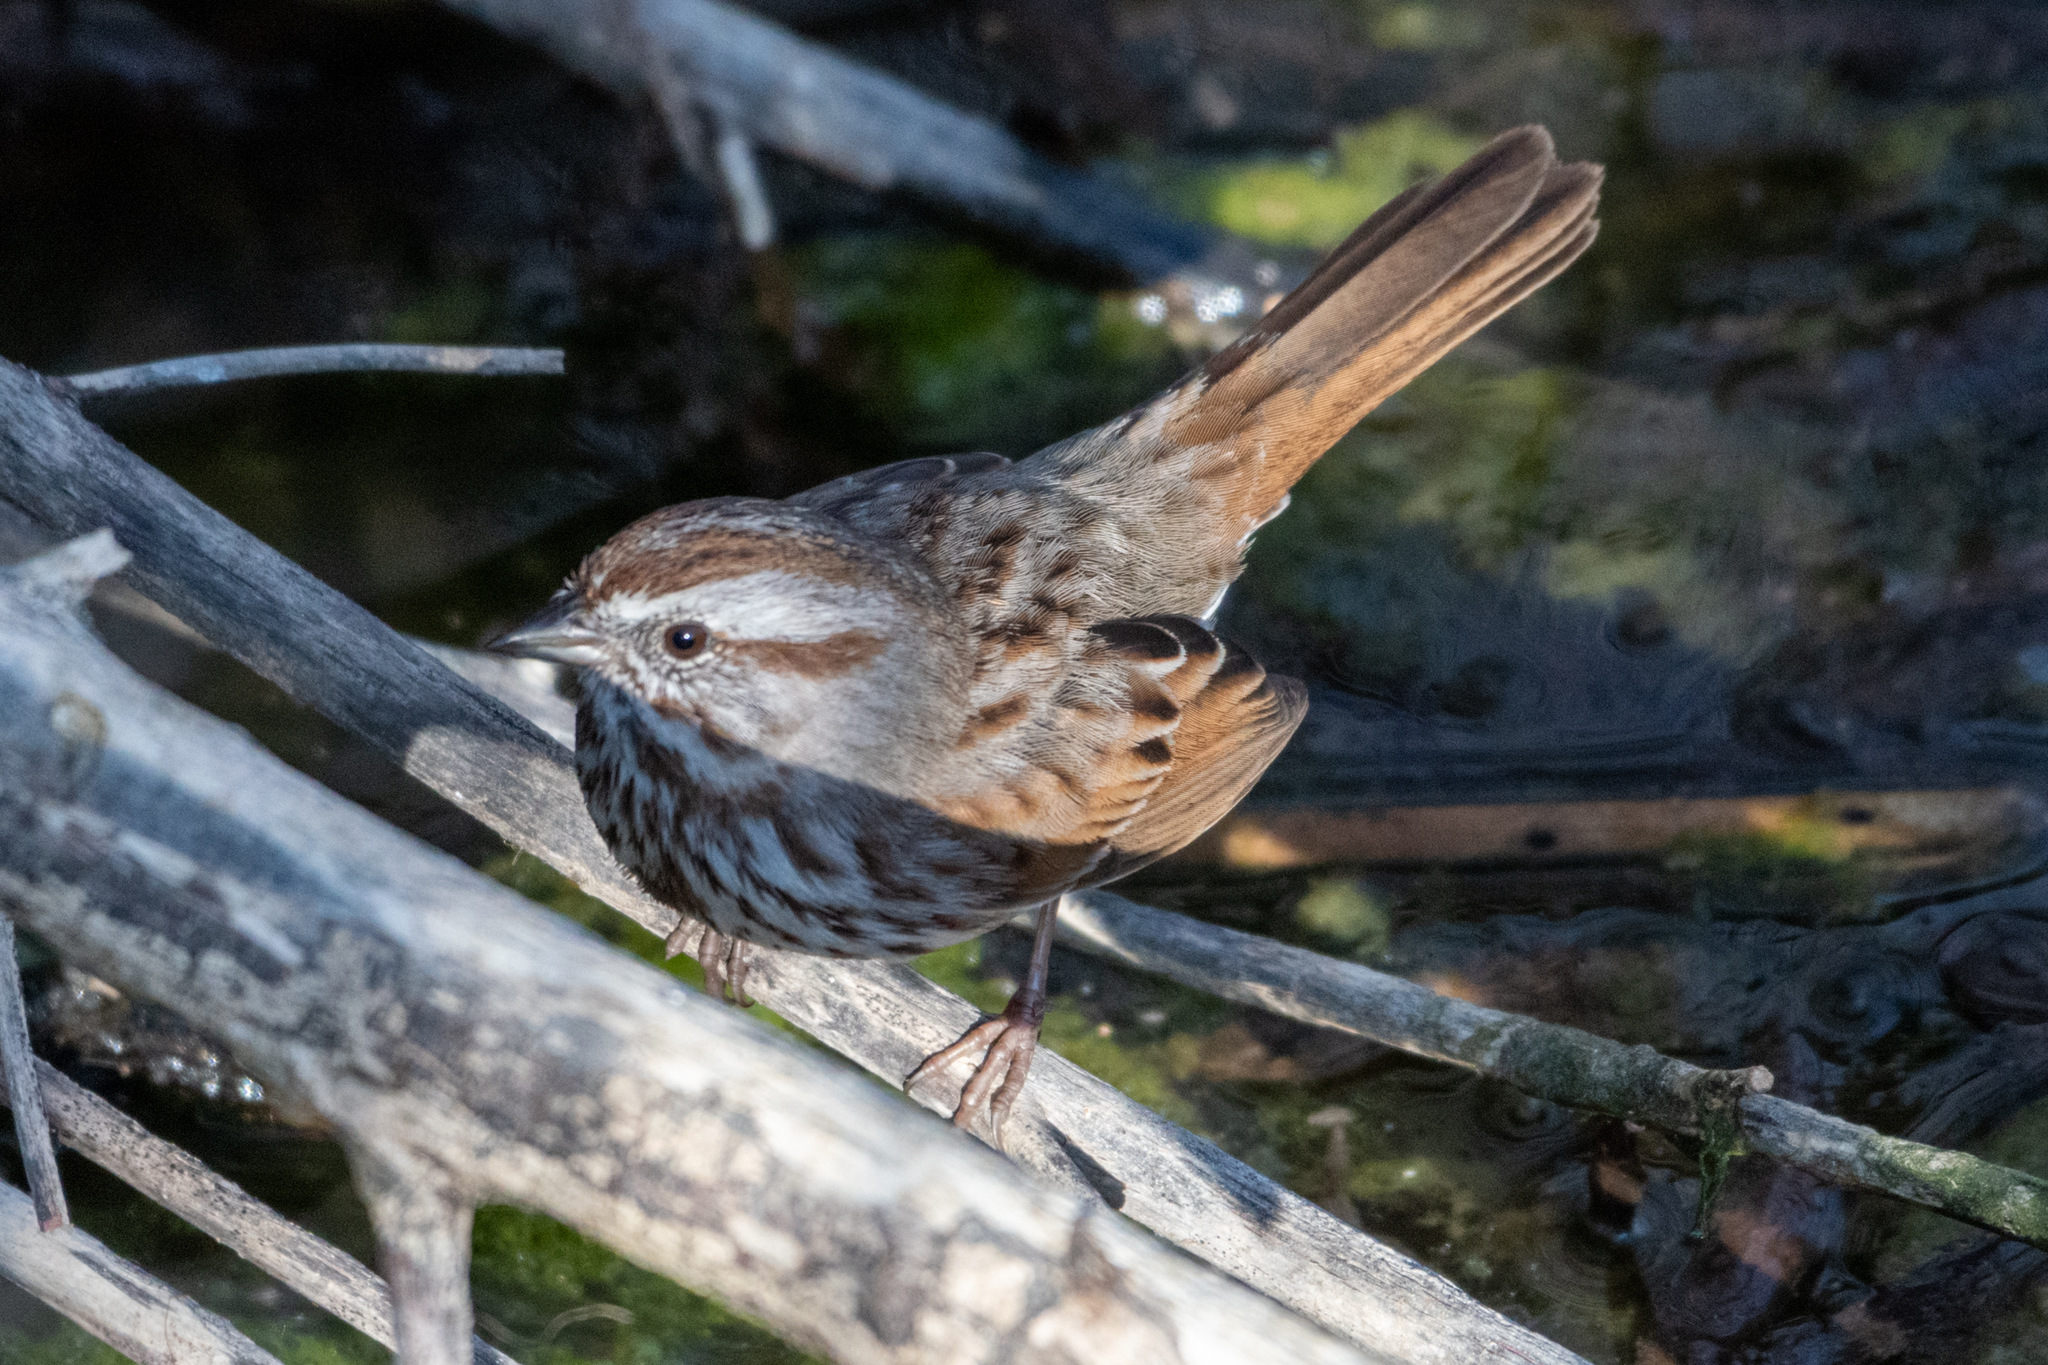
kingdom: Animalia
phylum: Chordata
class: Aves
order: Passeriformes
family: Passerellidae
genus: Melospiza
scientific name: Melospiza melodia
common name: Song sparrow
